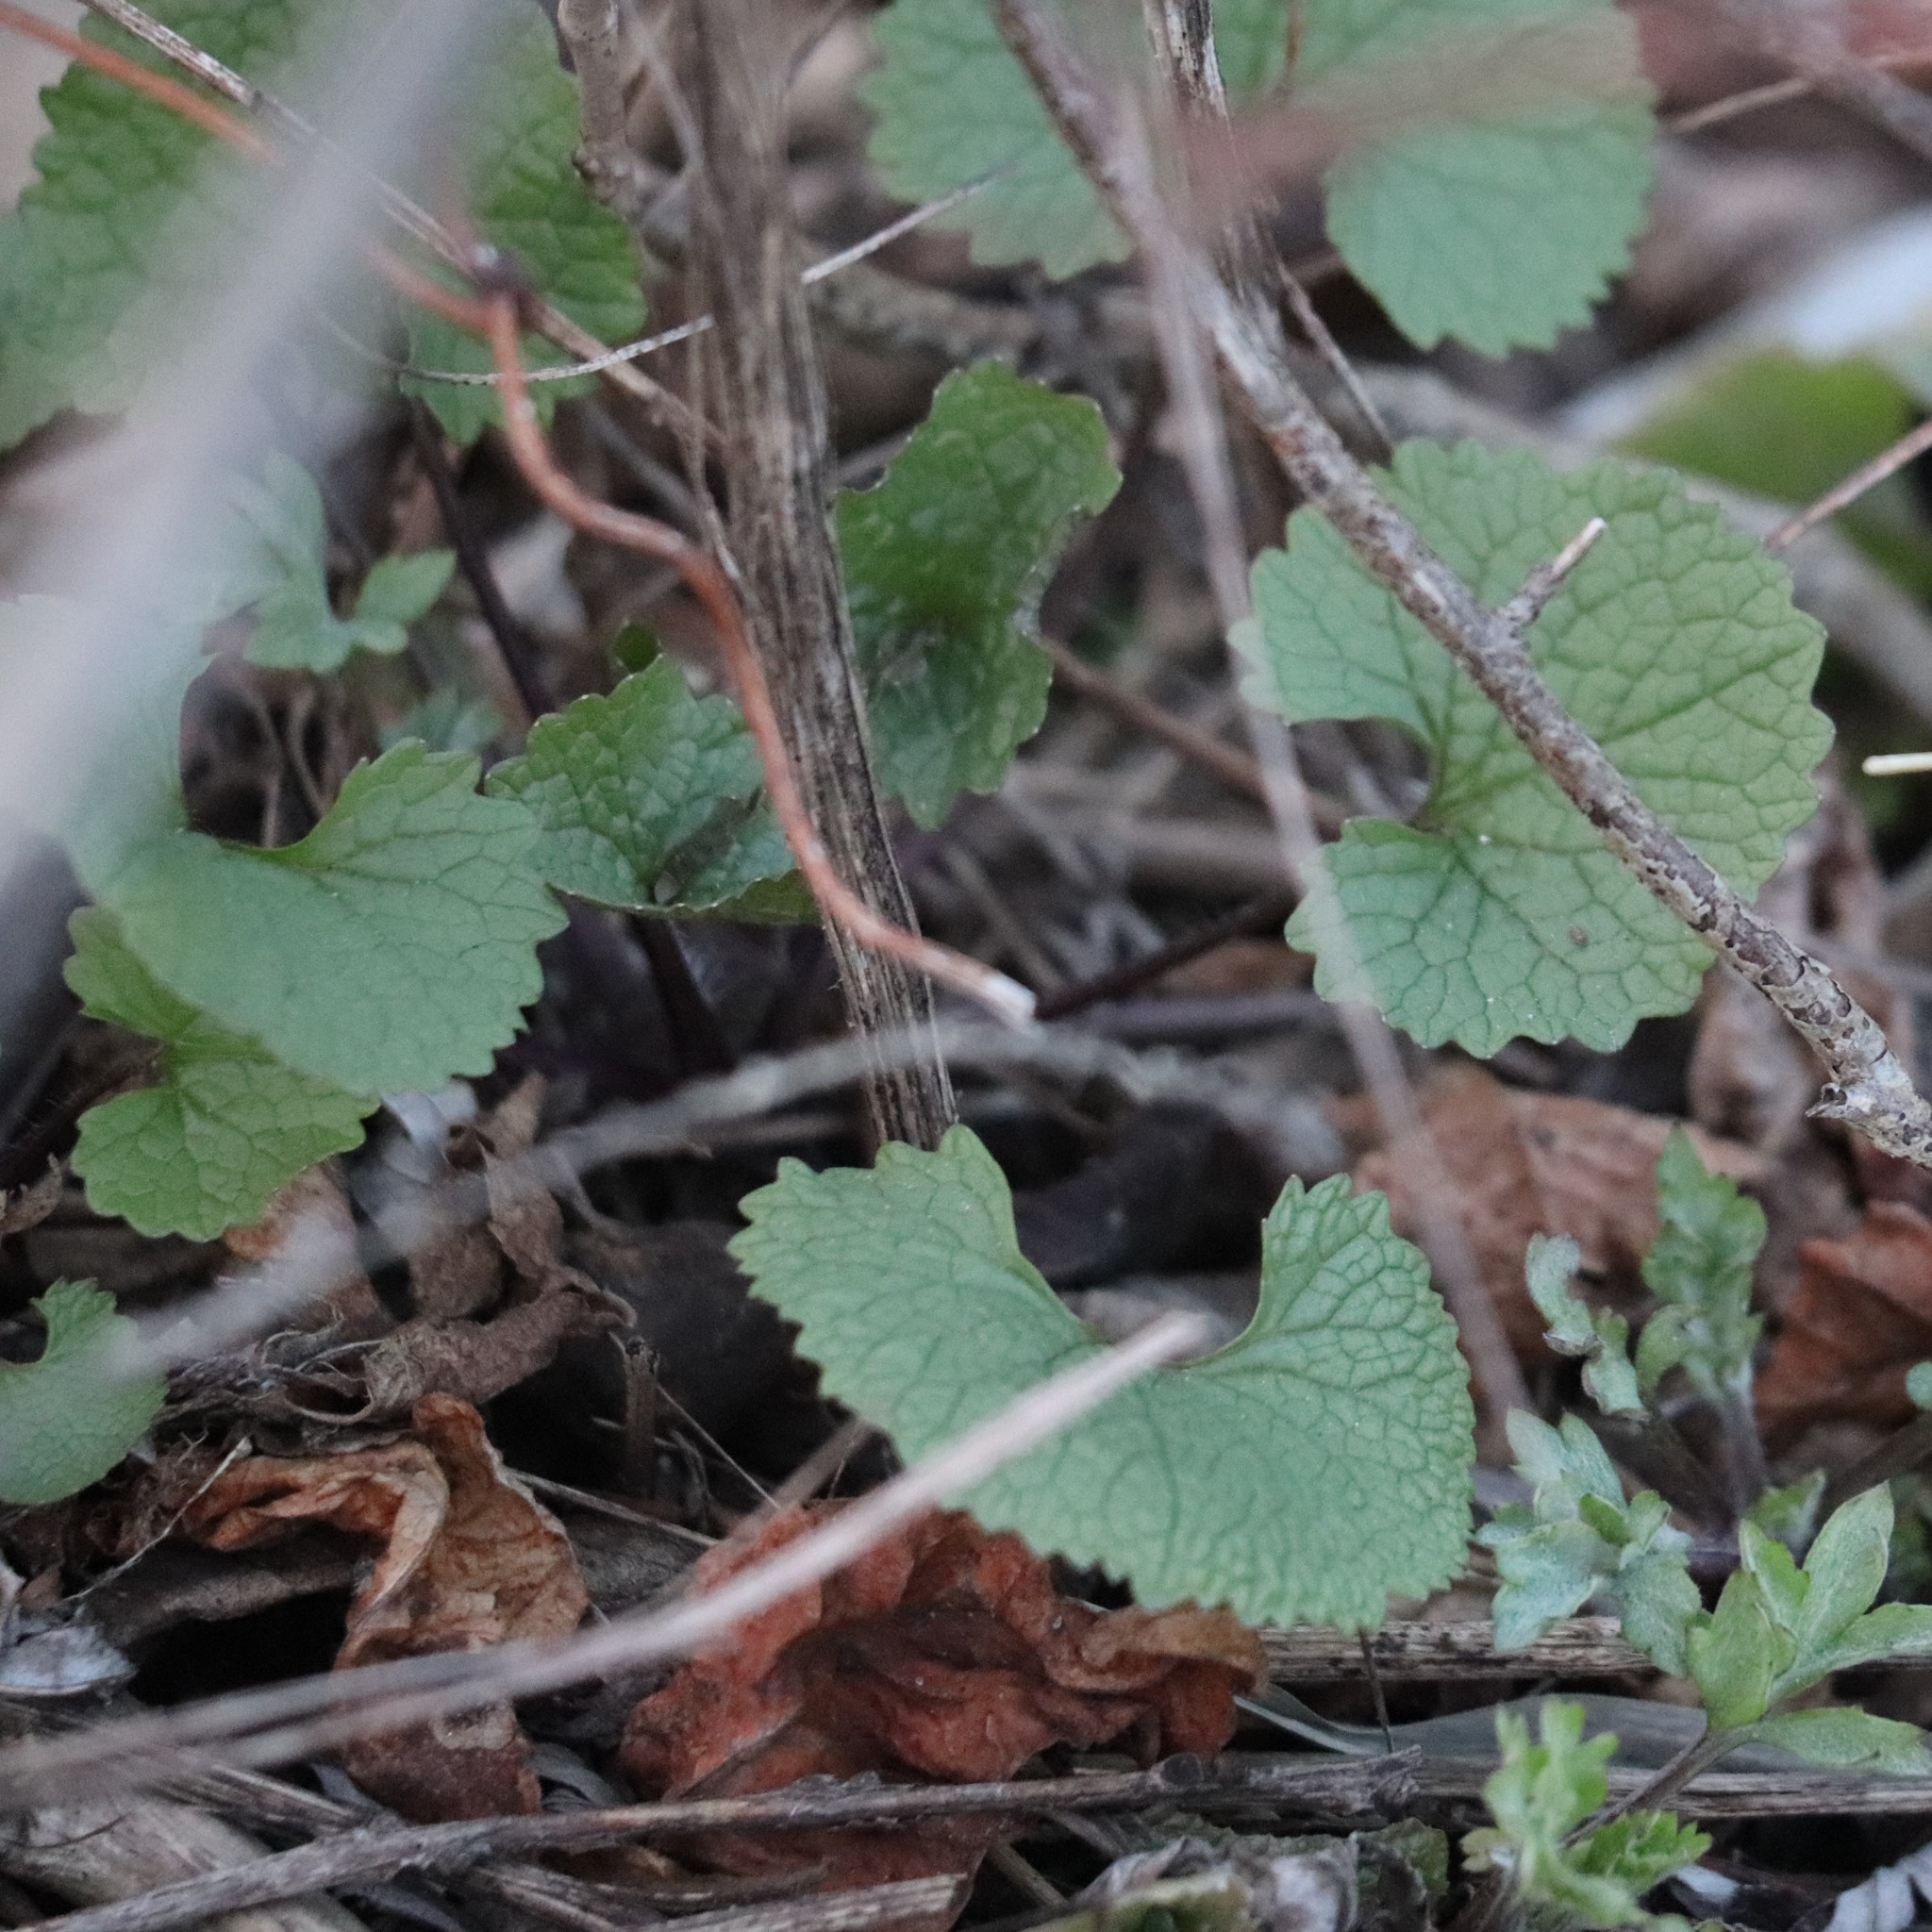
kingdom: Plantae
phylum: Tracheophyta
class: Magnoliopsida
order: Brassicales
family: Brassicaceae
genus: Alliaria
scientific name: Alliaria petiolata
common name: Garlic mustard
